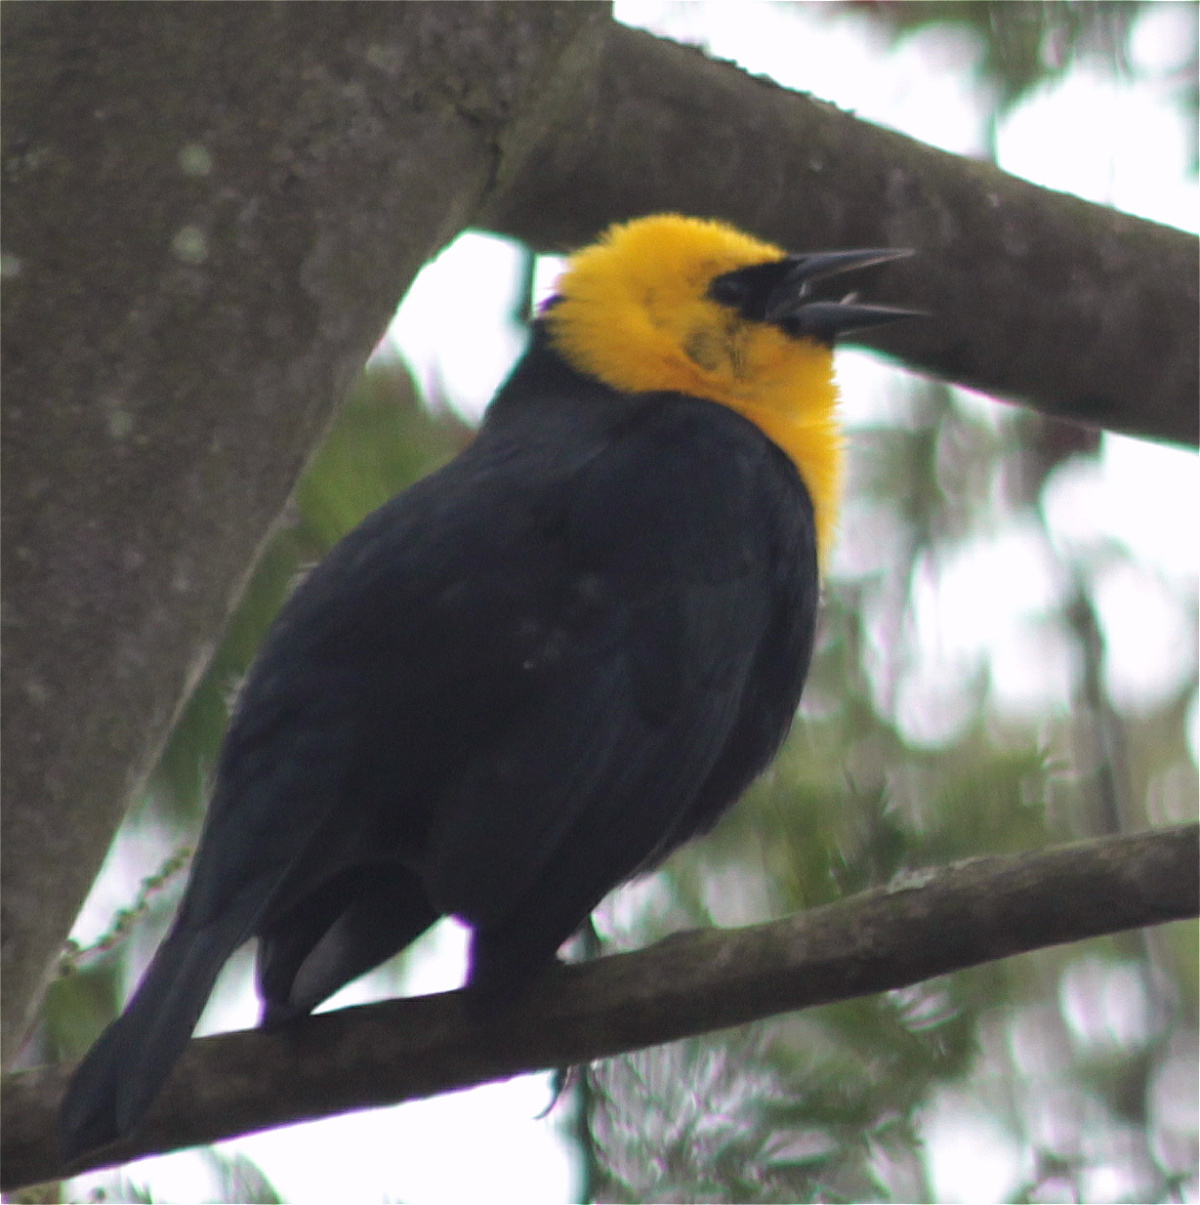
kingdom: Animalia
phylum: Chordata
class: Aves
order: Passeriformes
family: Icteridae
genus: Chrysomus
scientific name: Chrysomus icterocephalus
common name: Yellow-hooded blackbird
